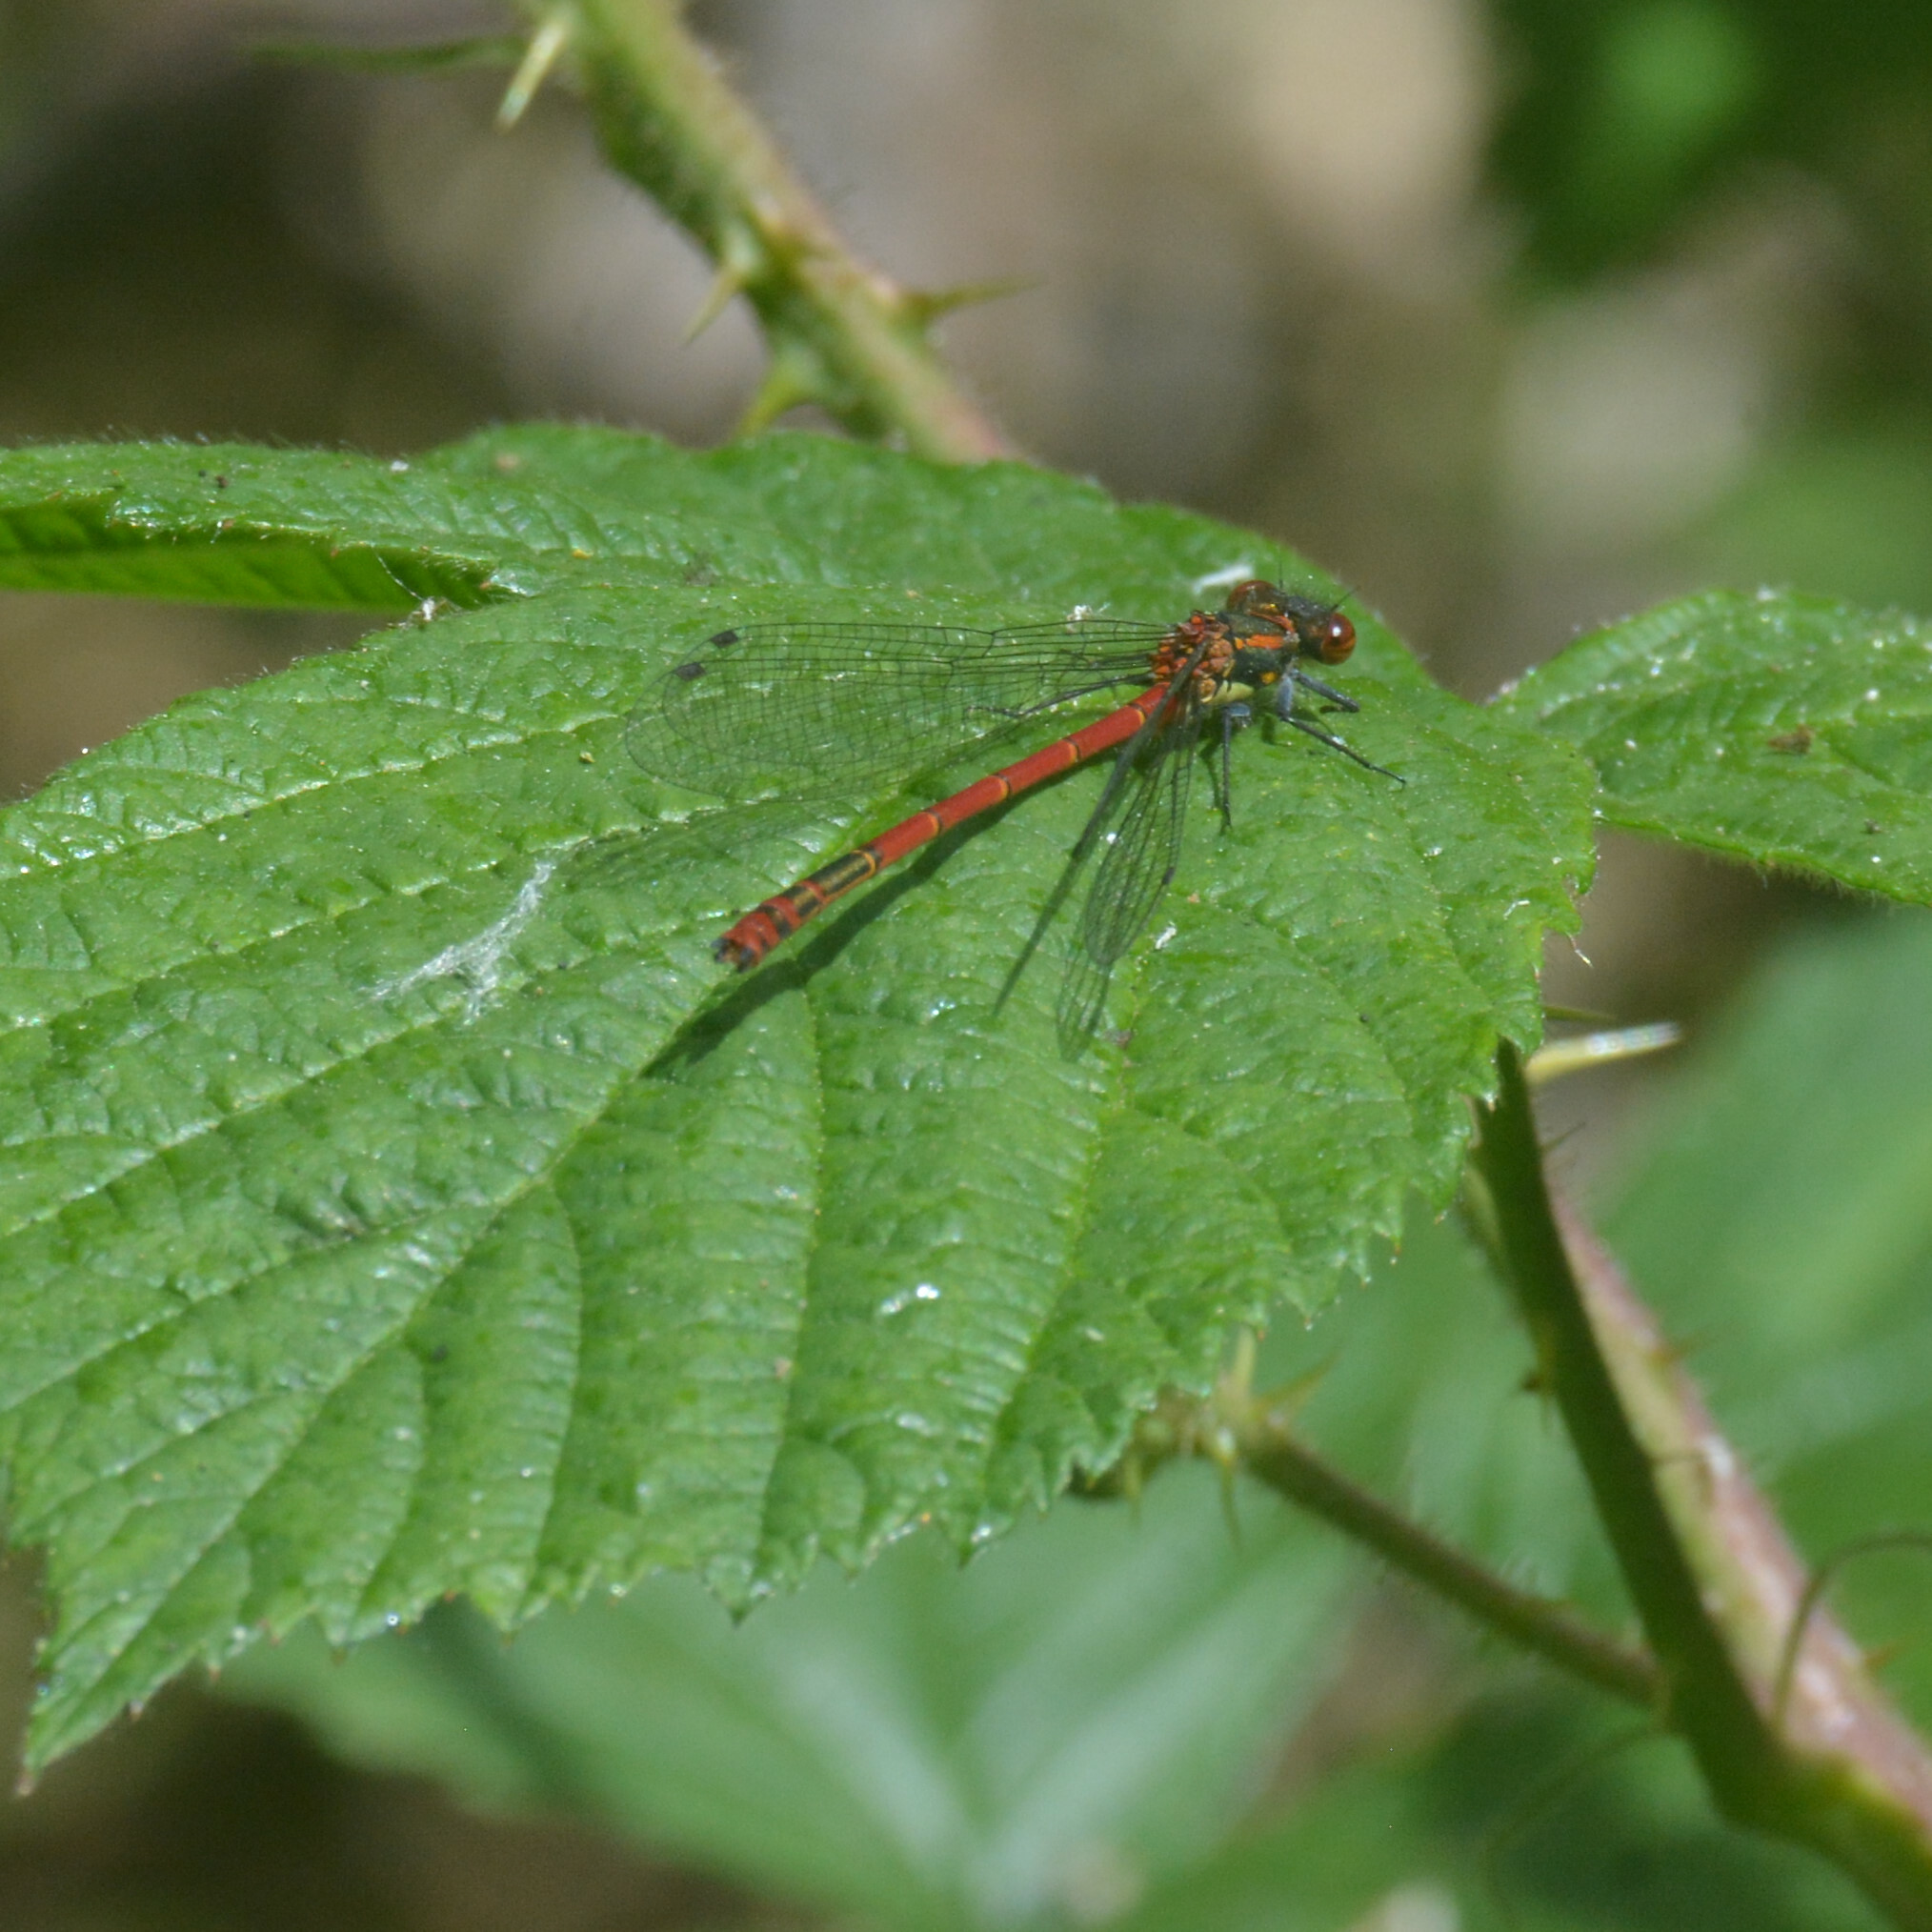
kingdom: Animalia
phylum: Arthropoda
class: Insecta
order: Odonata
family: Coenagrionidae
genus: Pyrrhosoma
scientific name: Pyrrhosoma nymphula
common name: Large red damsel
